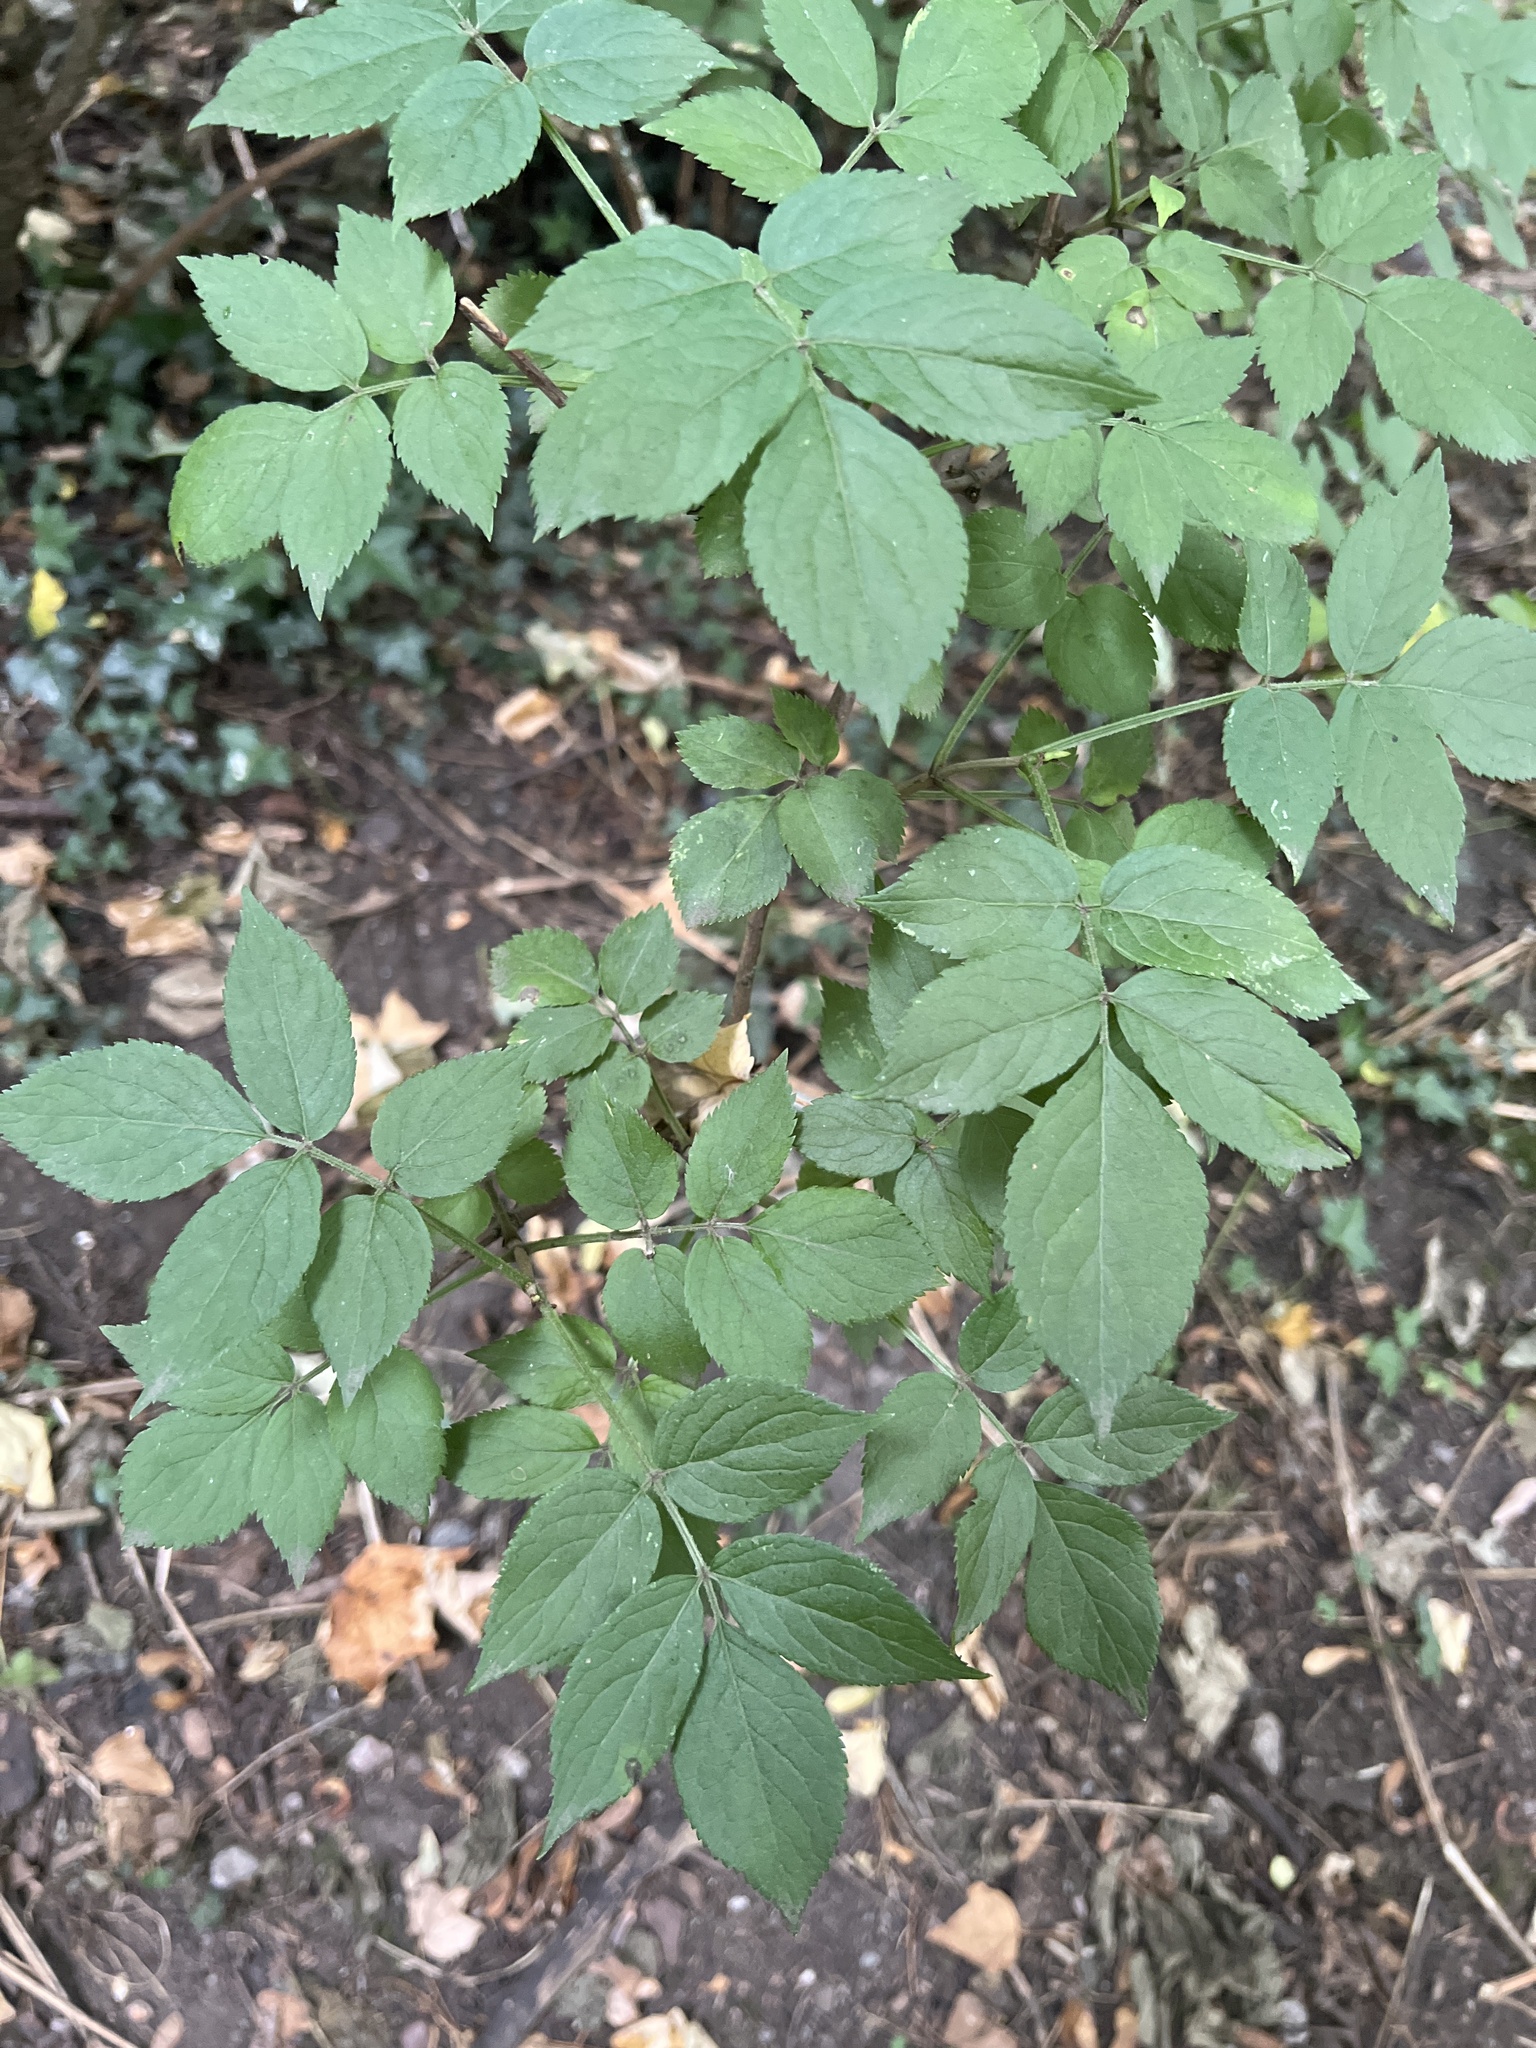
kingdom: Plantae
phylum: Tracheophyta
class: Magnoliopsida
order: Dipsacales
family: Viburnaceae
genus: Sambucus
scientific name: Sambucus nigra
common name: Elder
